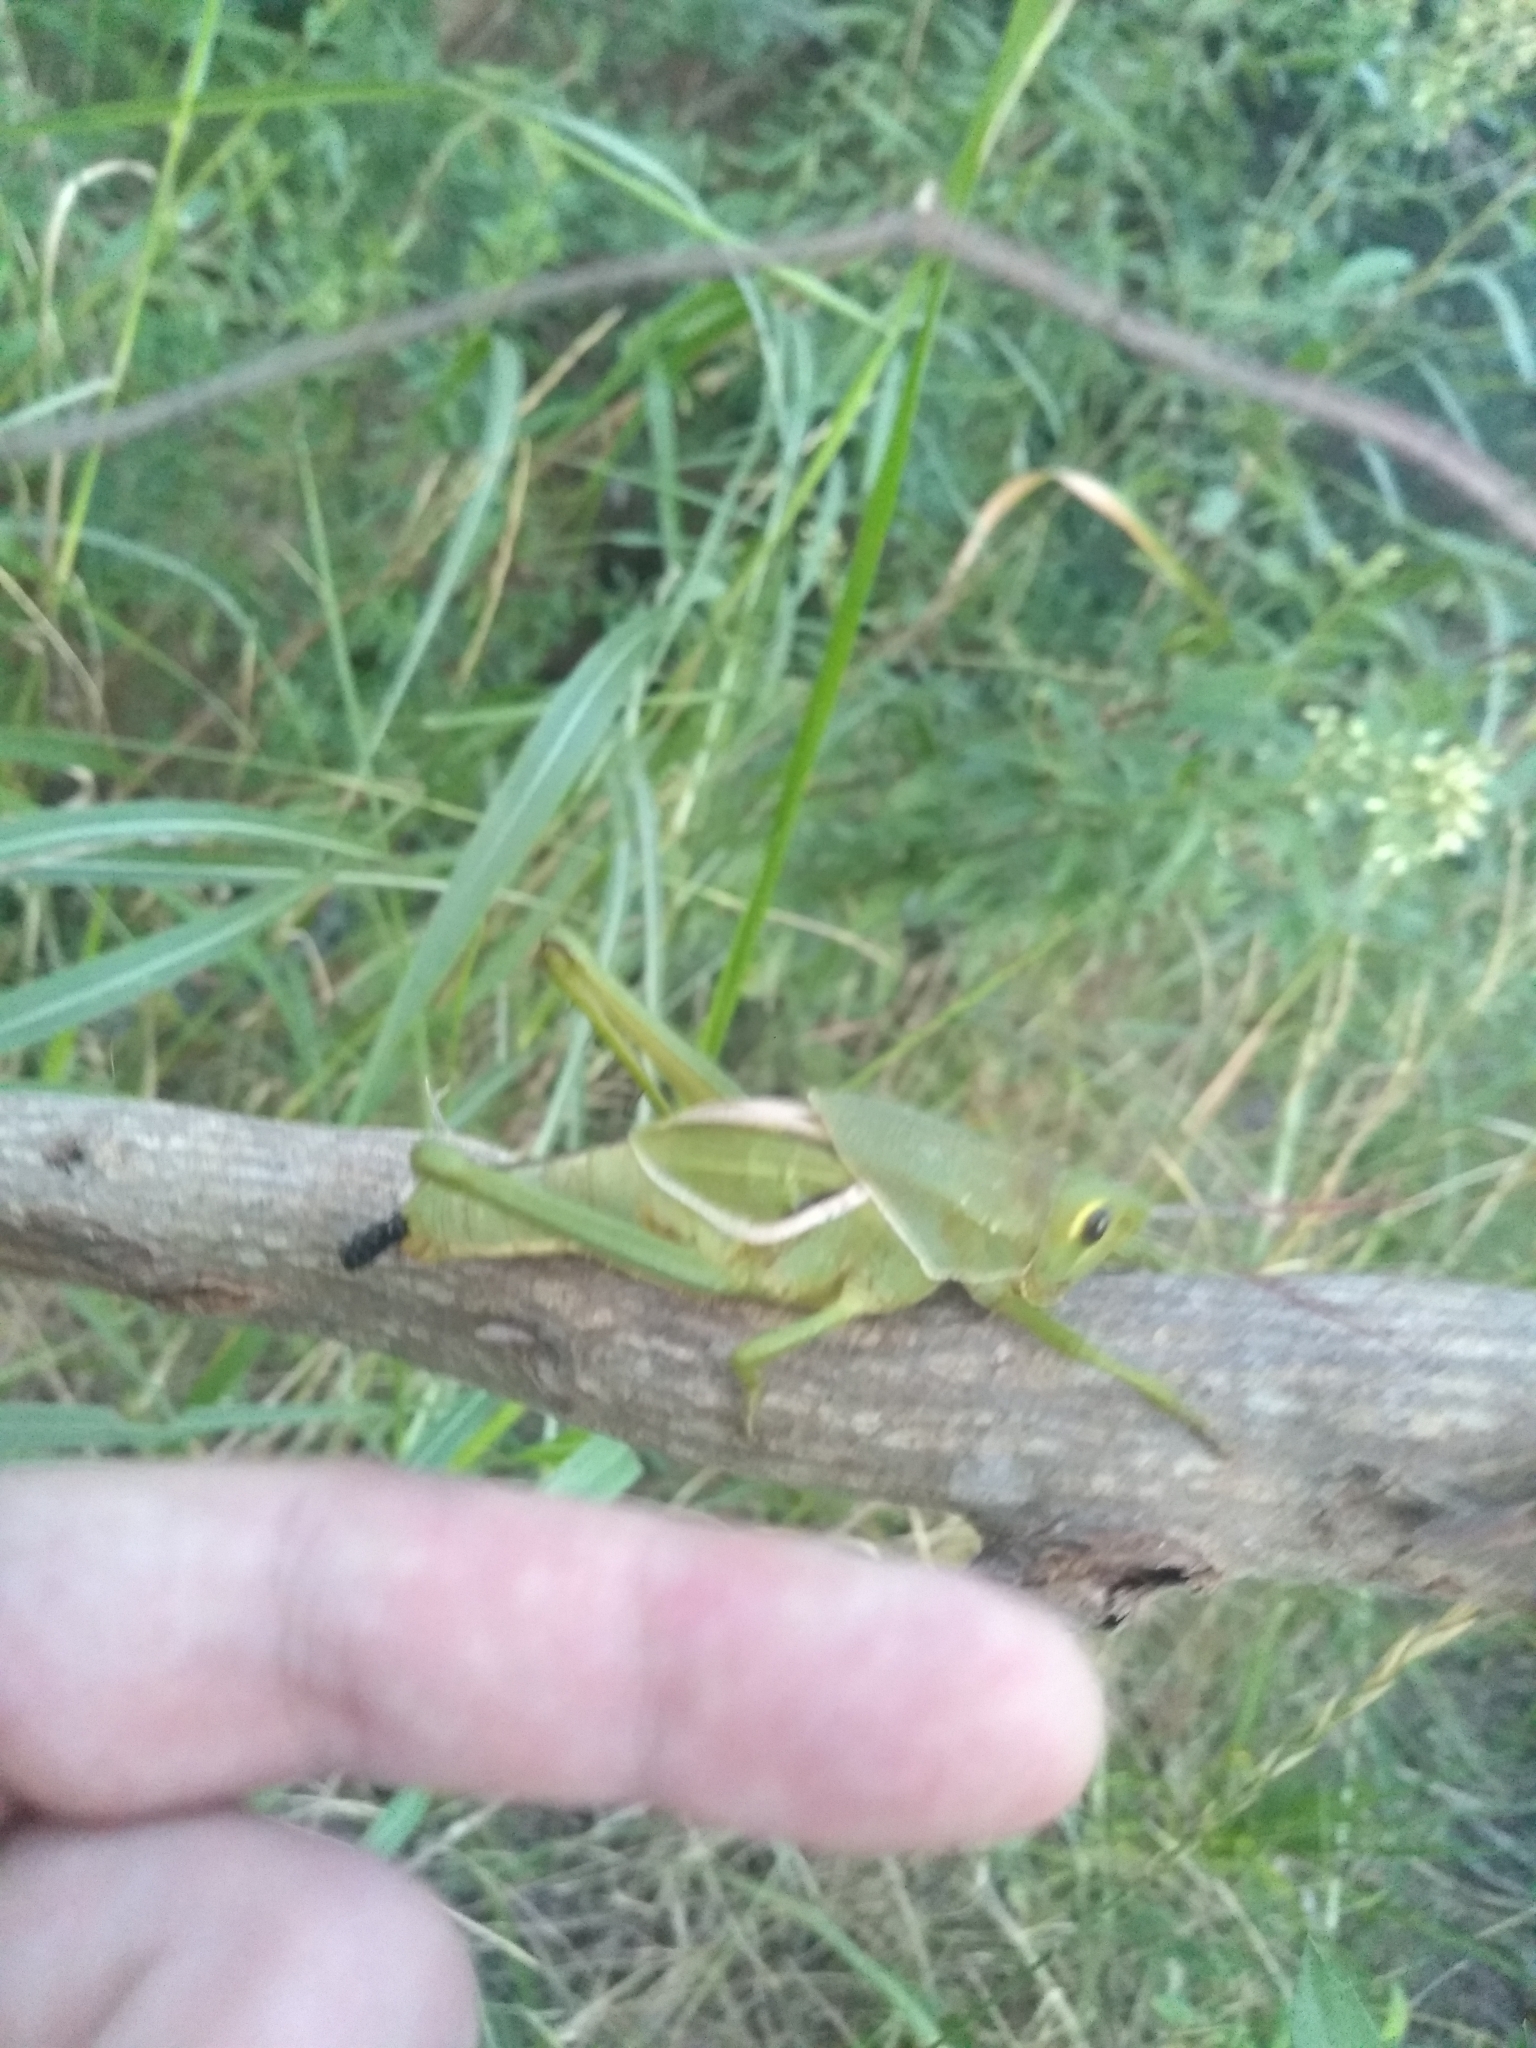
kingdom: Animalia
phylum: Arthropoda
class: Insecta
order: Orthoptera
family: Romaleidae
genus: Staleochlora
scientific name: Staleochlora viridicata
